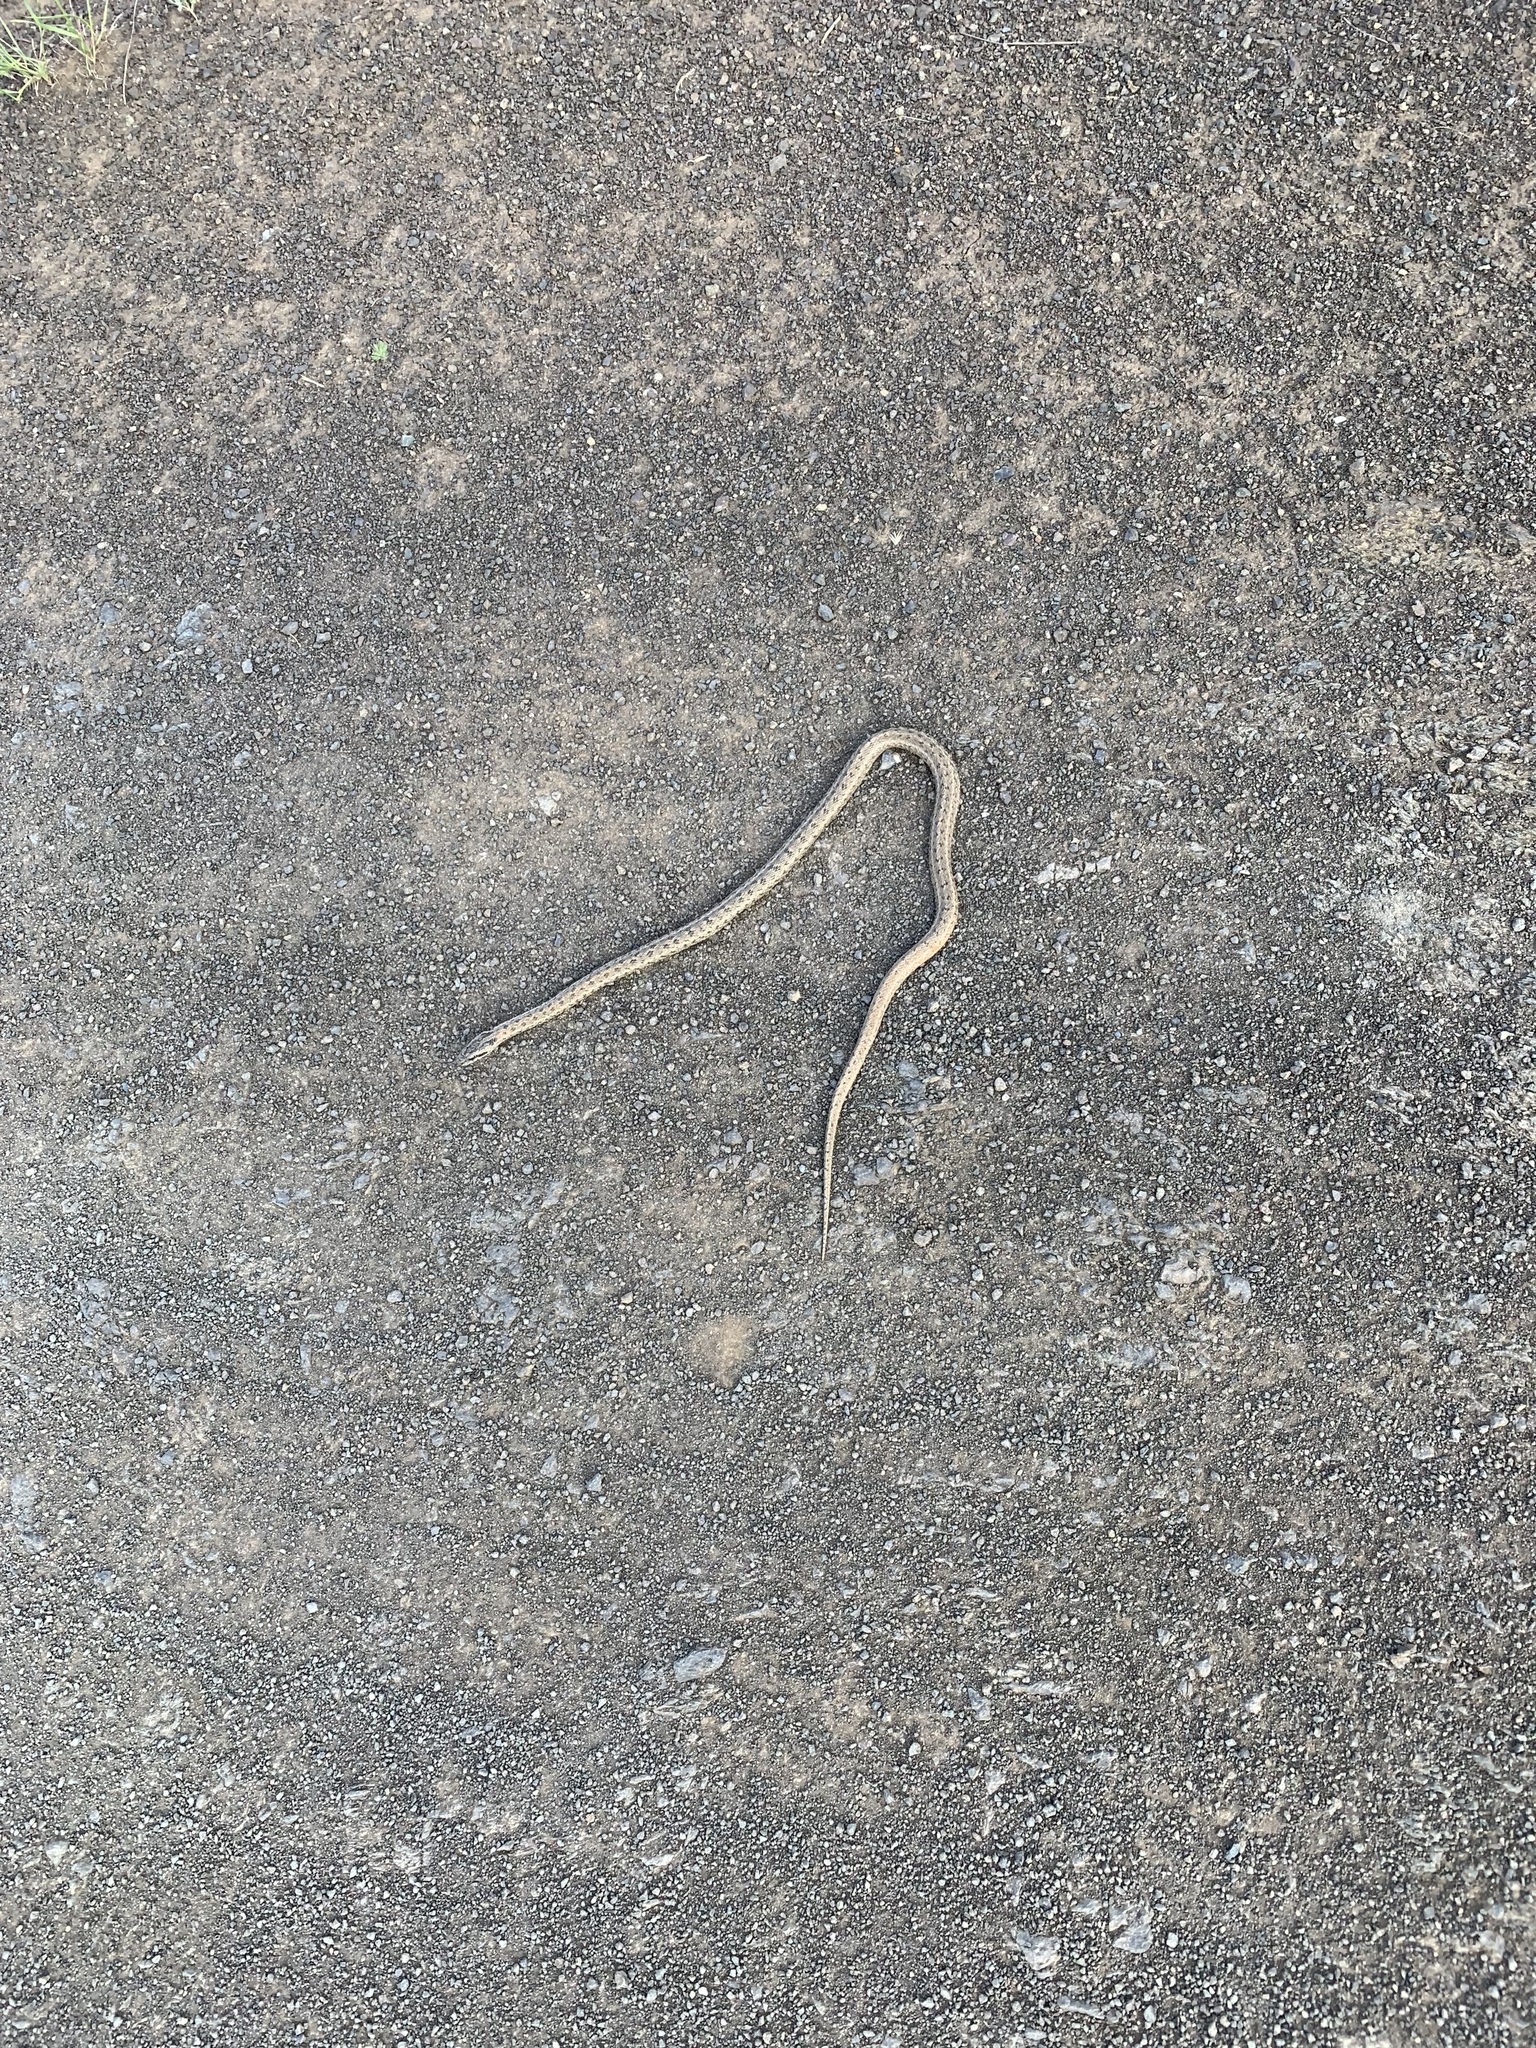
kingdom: Animalia
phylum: Chordata
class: Squamata
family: Colubridae
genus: Elaphe
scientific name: Elaphe dione
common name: Dione ratsnake
